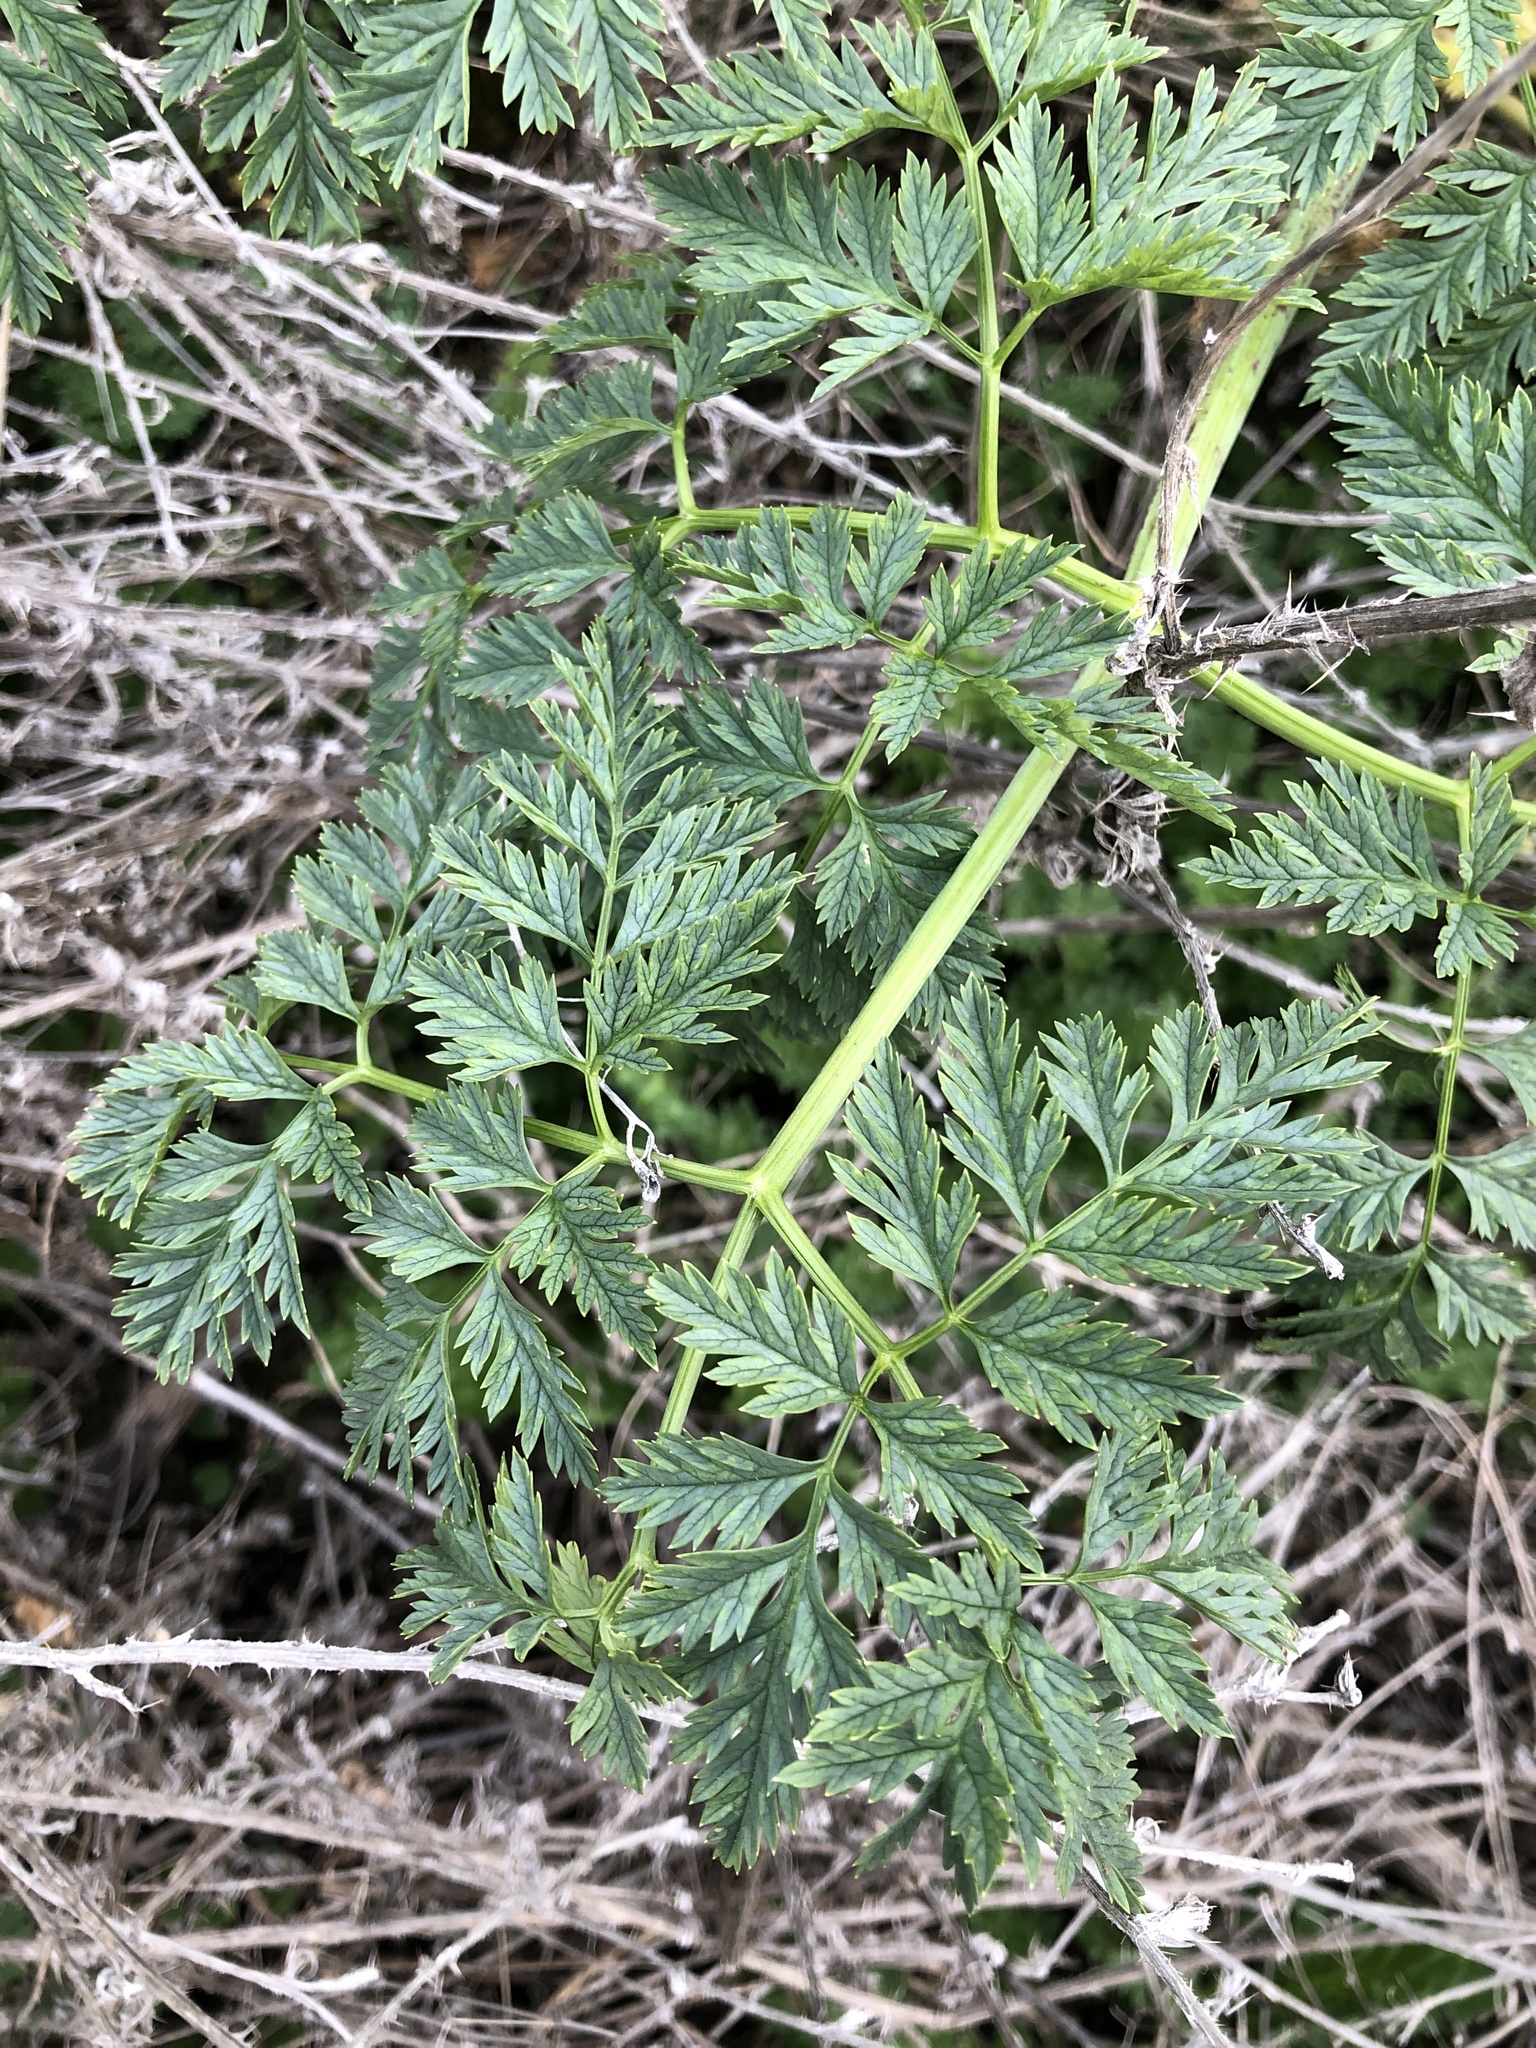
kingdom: Plantae
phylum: Tracheophyta
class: Magnoliopsida
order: Apiales
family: Apiaceae
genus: Conium
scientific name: Conium maculatum
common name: Hemlock
